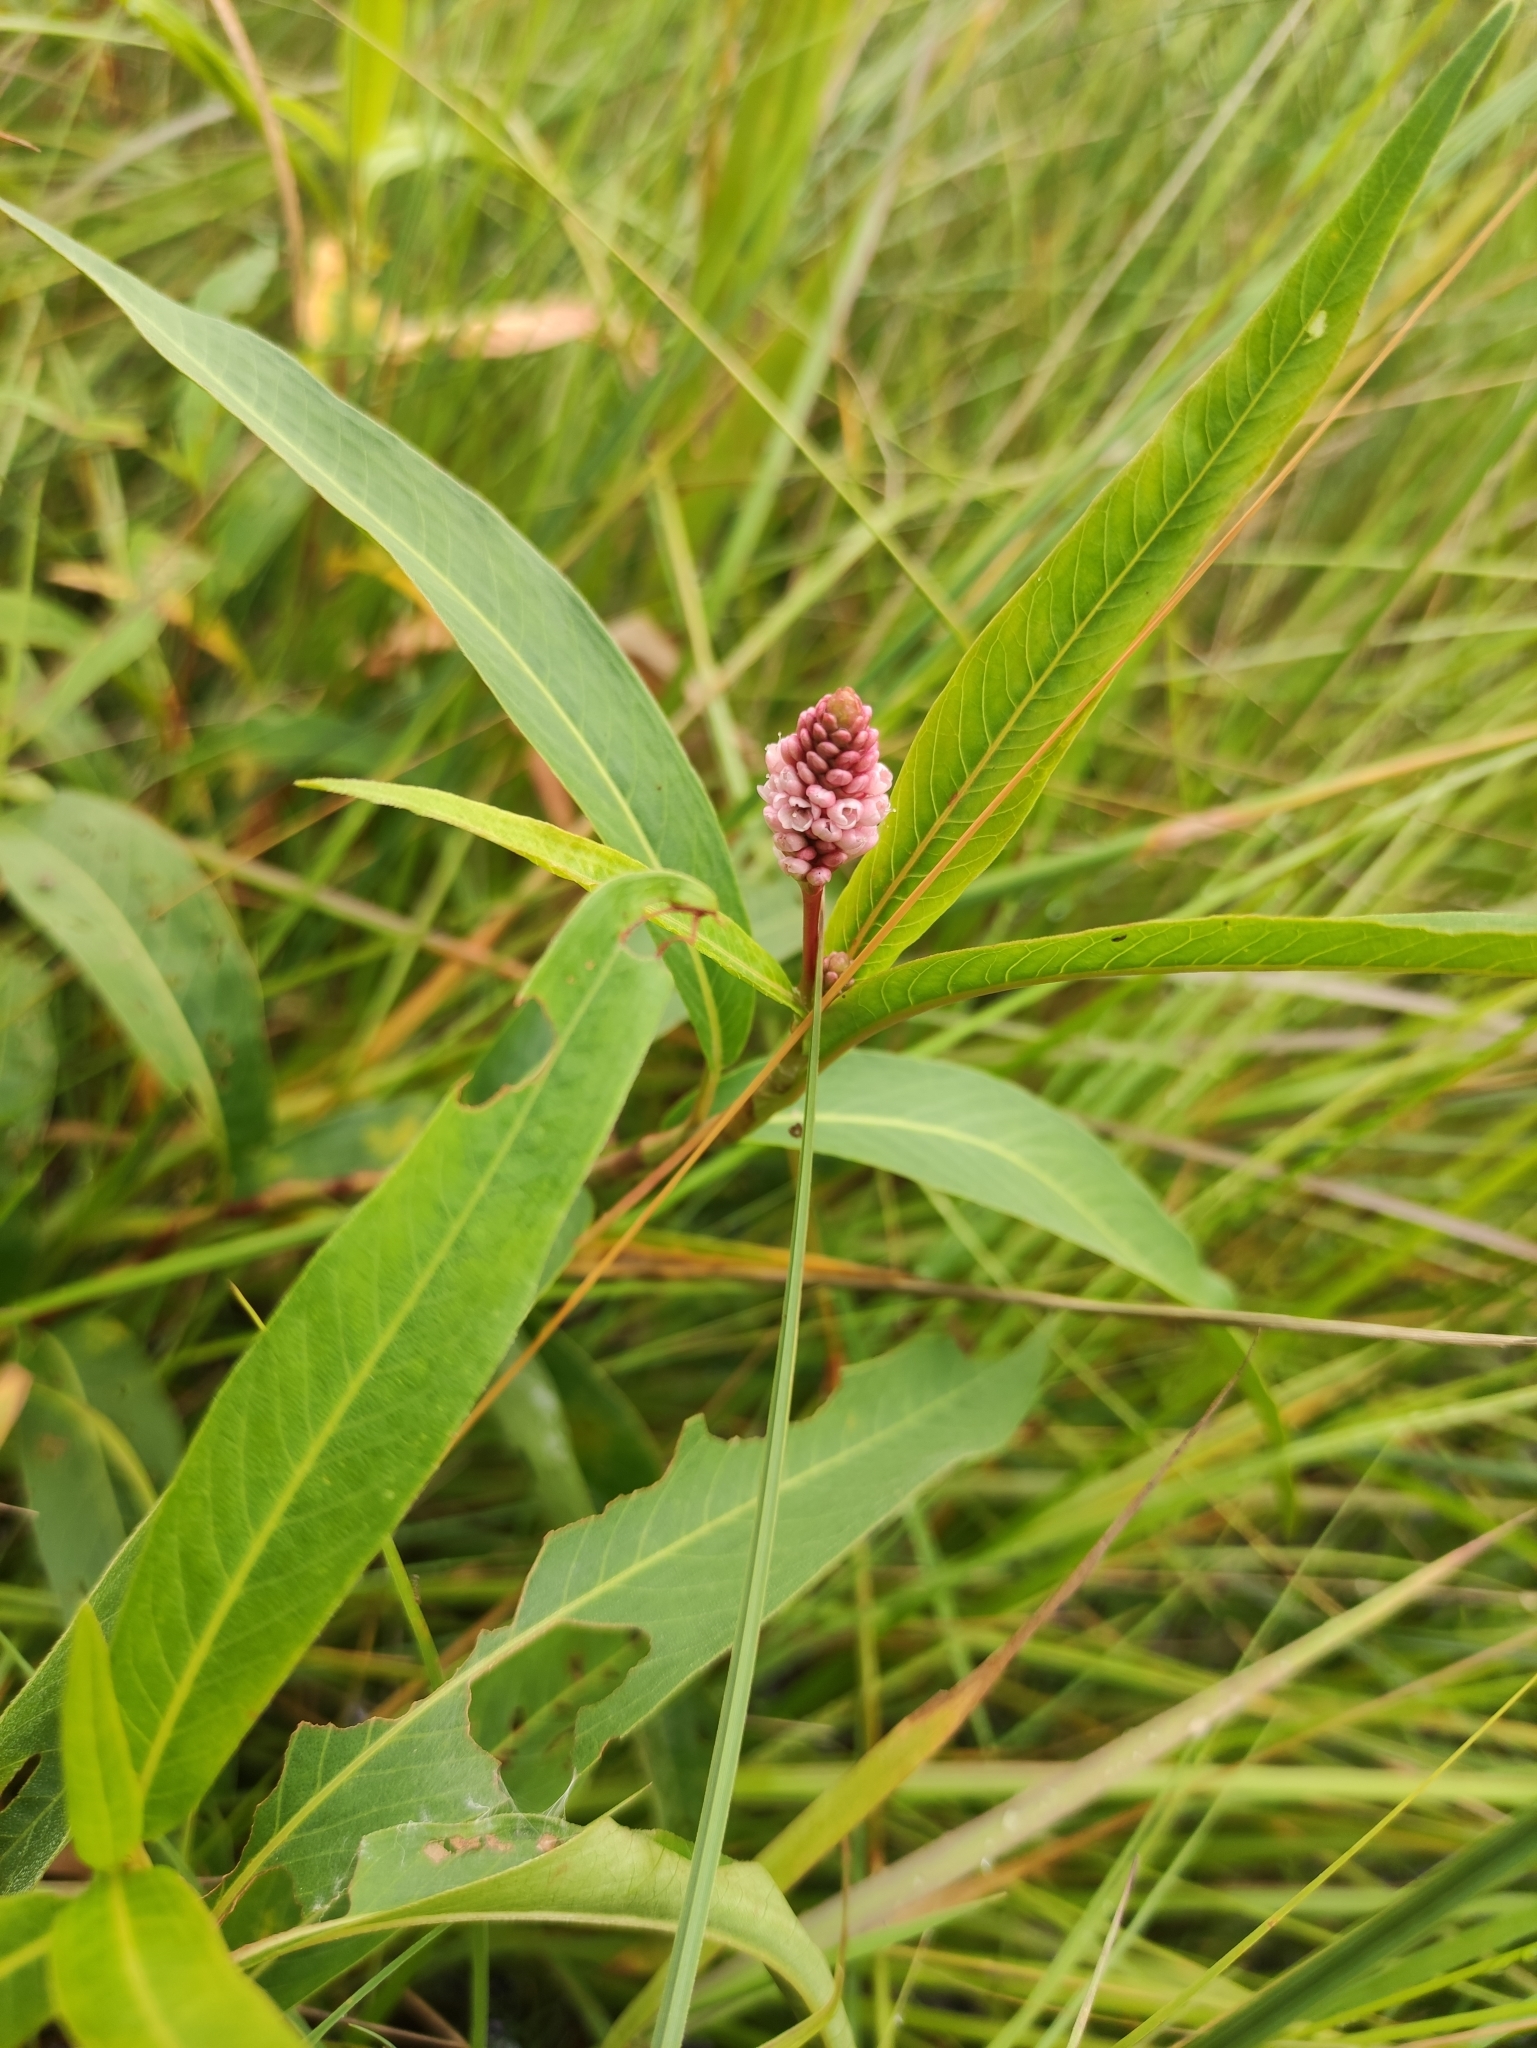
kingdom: Plantae
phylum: Tracheophyta
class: Magnoliopsida
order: Caryophyllales
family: Polygonaceae
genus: Persicaria
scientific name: Persicaria amphibia
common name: Amphibious bistort
